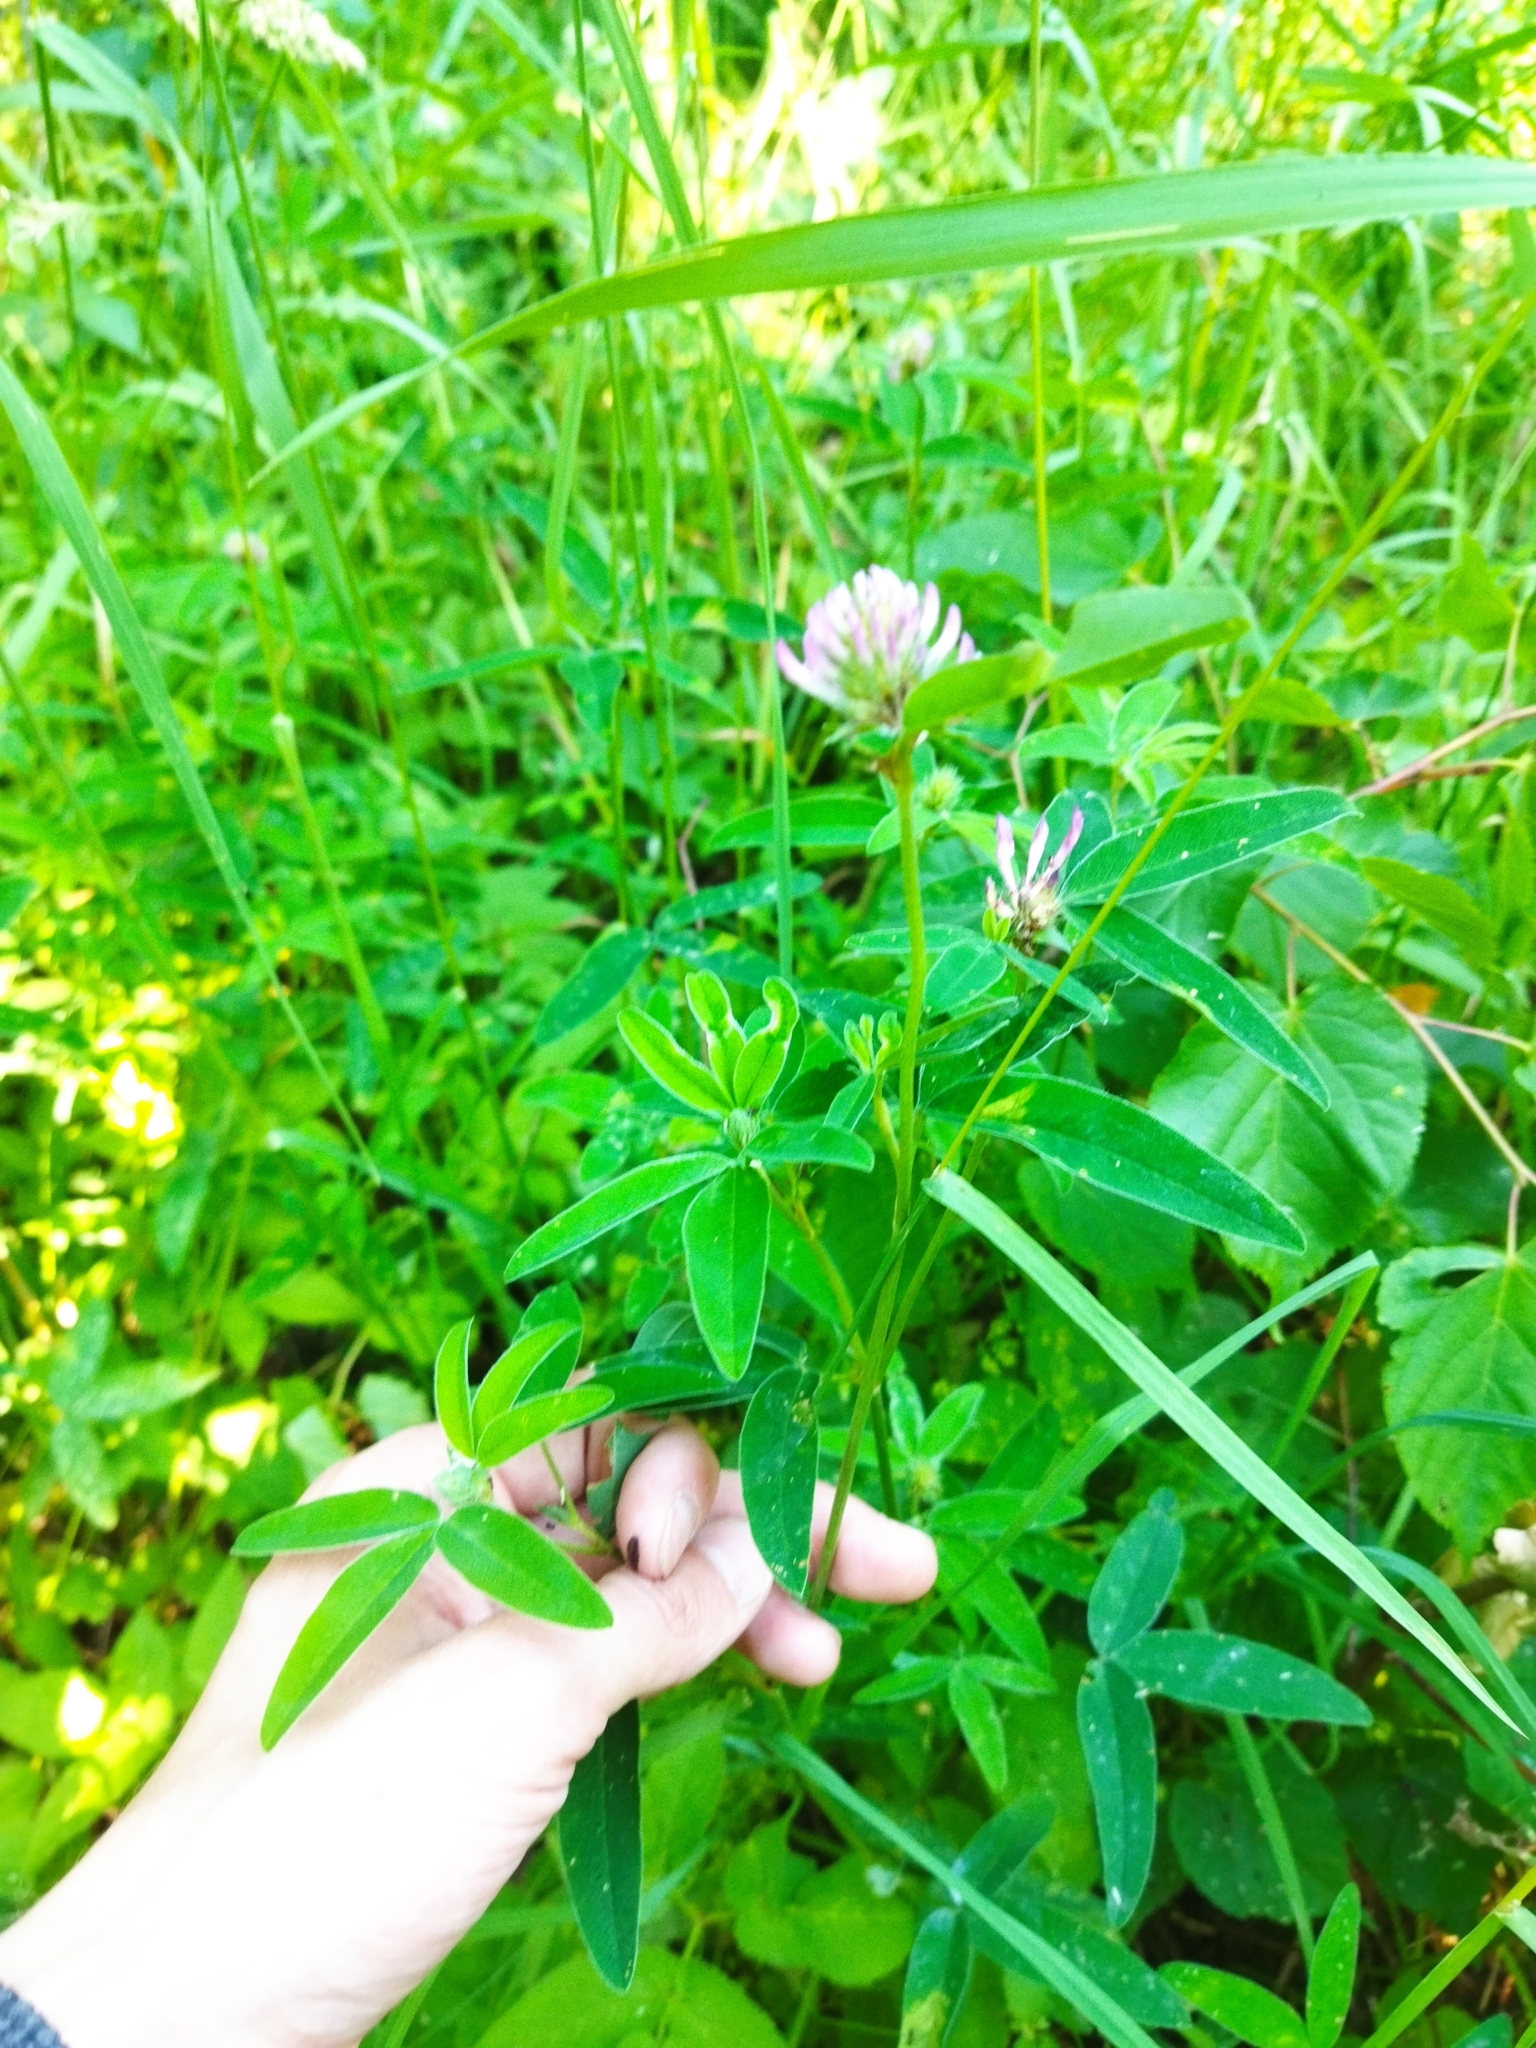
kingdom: Plantae
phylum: Tracheophyta
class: Magnoliopsida
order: Fabales
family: Fabaceae
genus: Trifolium
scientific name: Trifolium medium
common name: Zigzag clover
